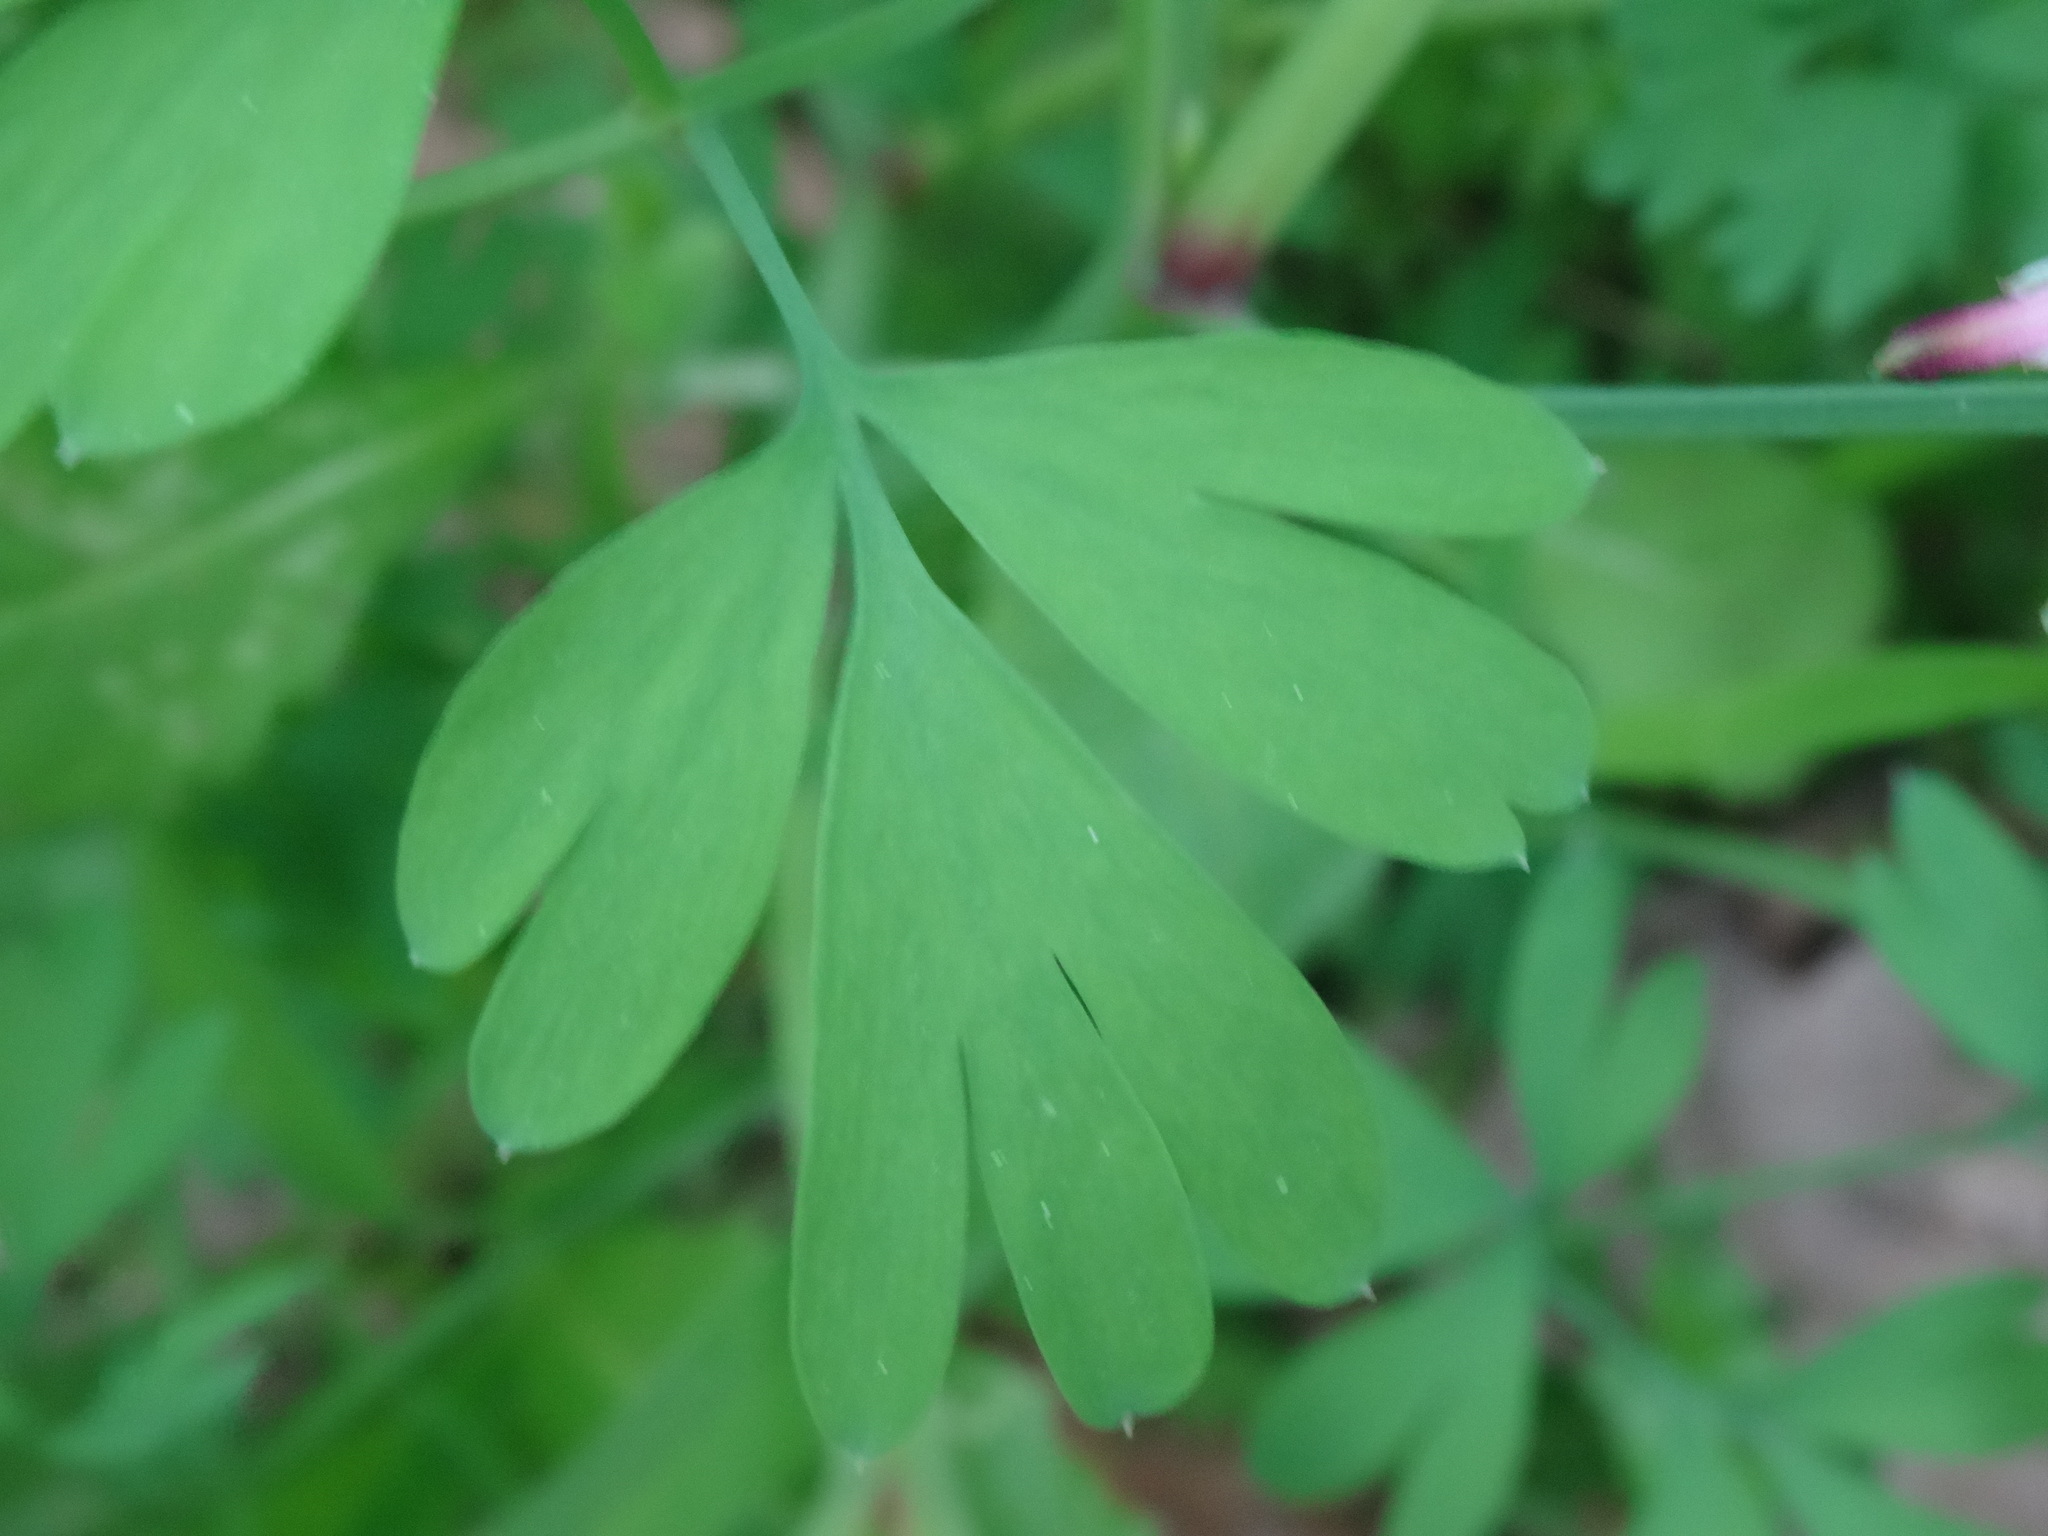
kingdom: Plantae
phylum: Tracheophyta
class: Magnoliopsida
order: Ranunculales
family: Papaveraceae
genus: Fumaria
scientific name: Fumaria capreolata
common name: White ramping-fumitory
